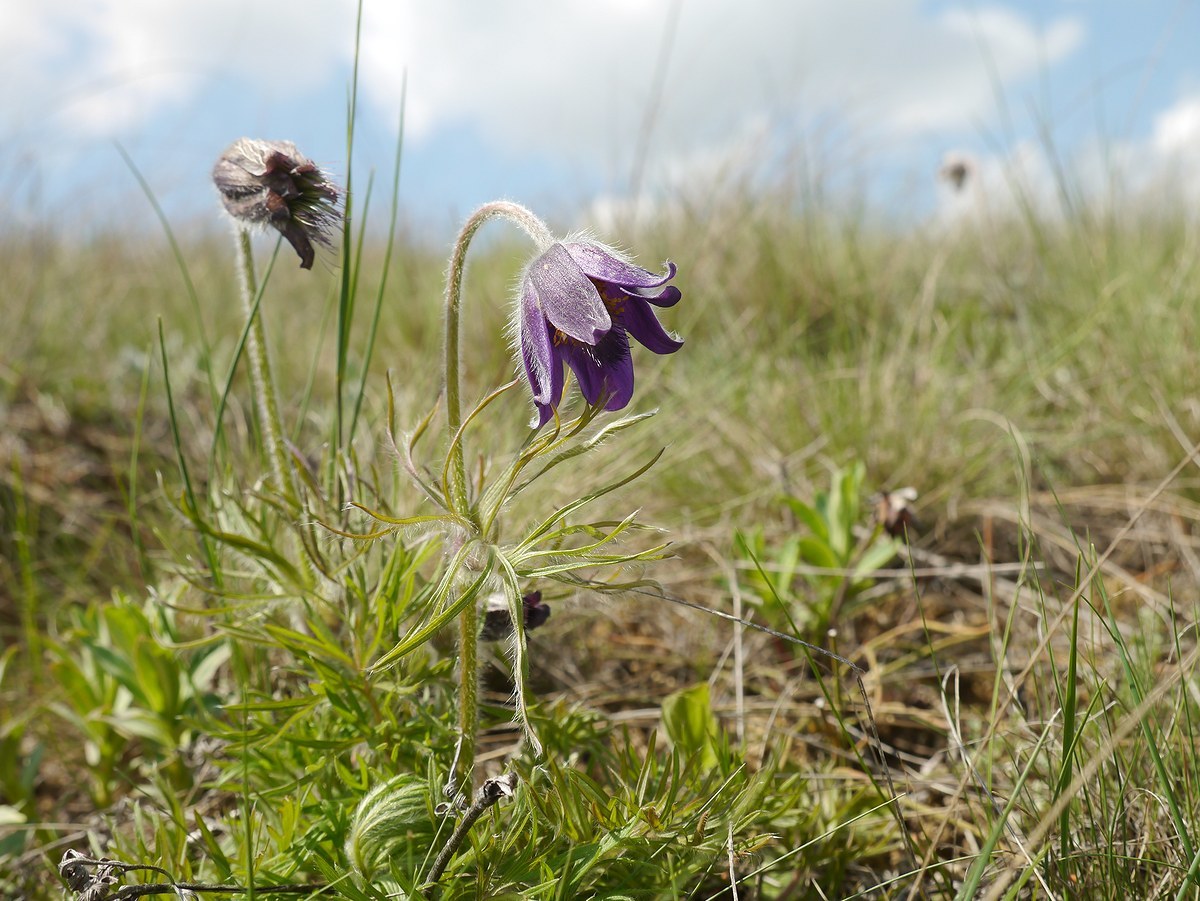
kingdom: Plantae
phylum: Tracheophyta
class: Magnoliopsida
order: Ranunculales
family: Ranunculaceae
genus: Pulsatilla
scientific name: Pulsatilla pratensis
